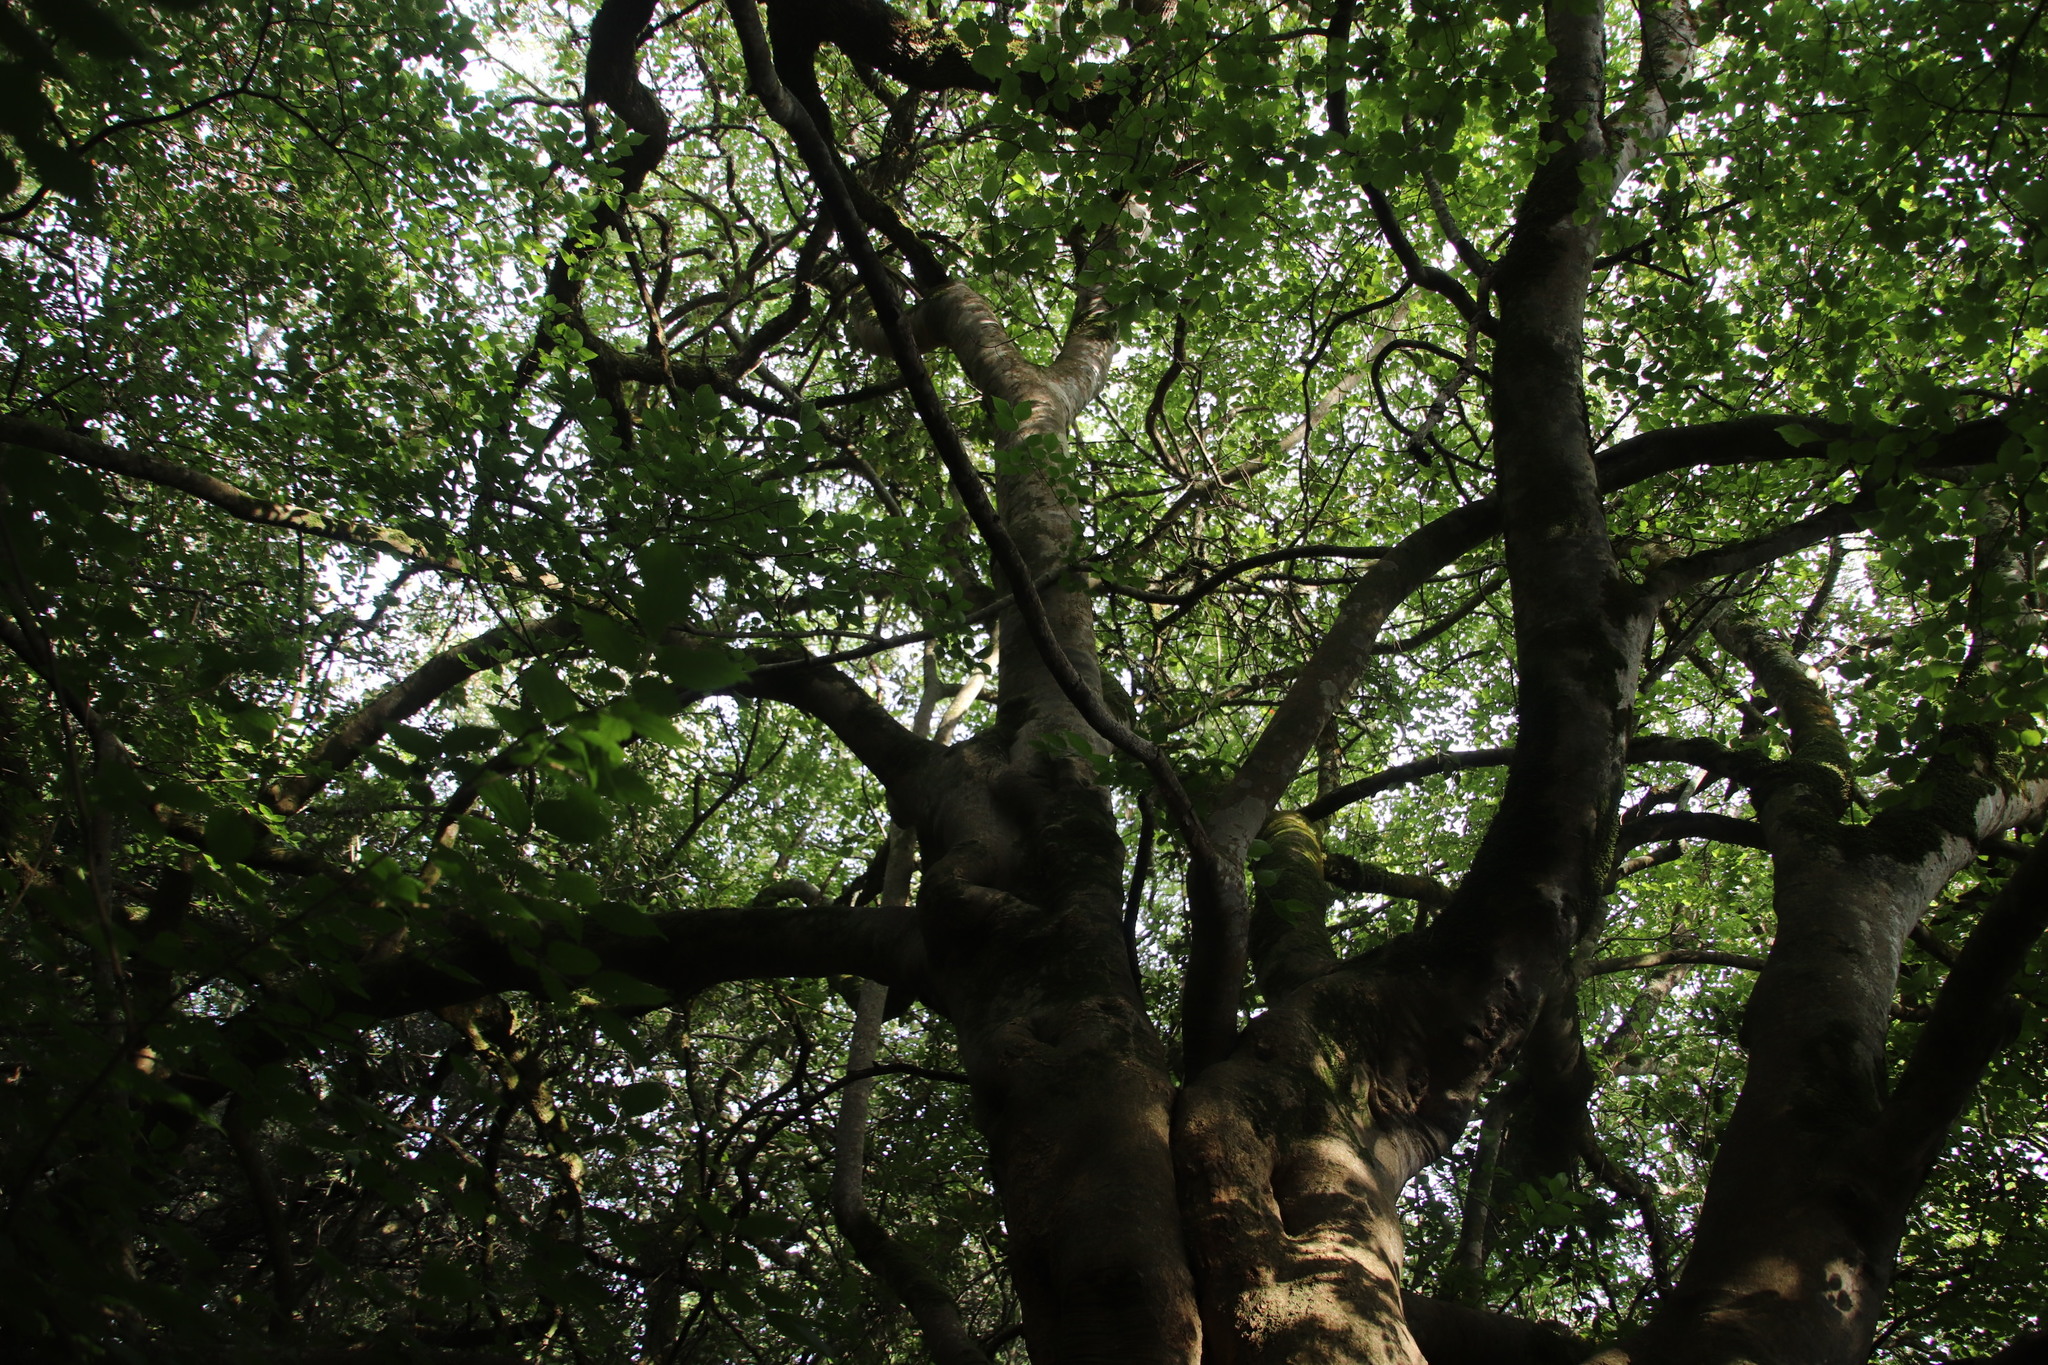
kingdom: Plantae
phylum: Tracheophyta
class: Magnoliopsida
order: Rosales
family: Cannabaceae
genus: Celtis
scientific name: Celtis africana
